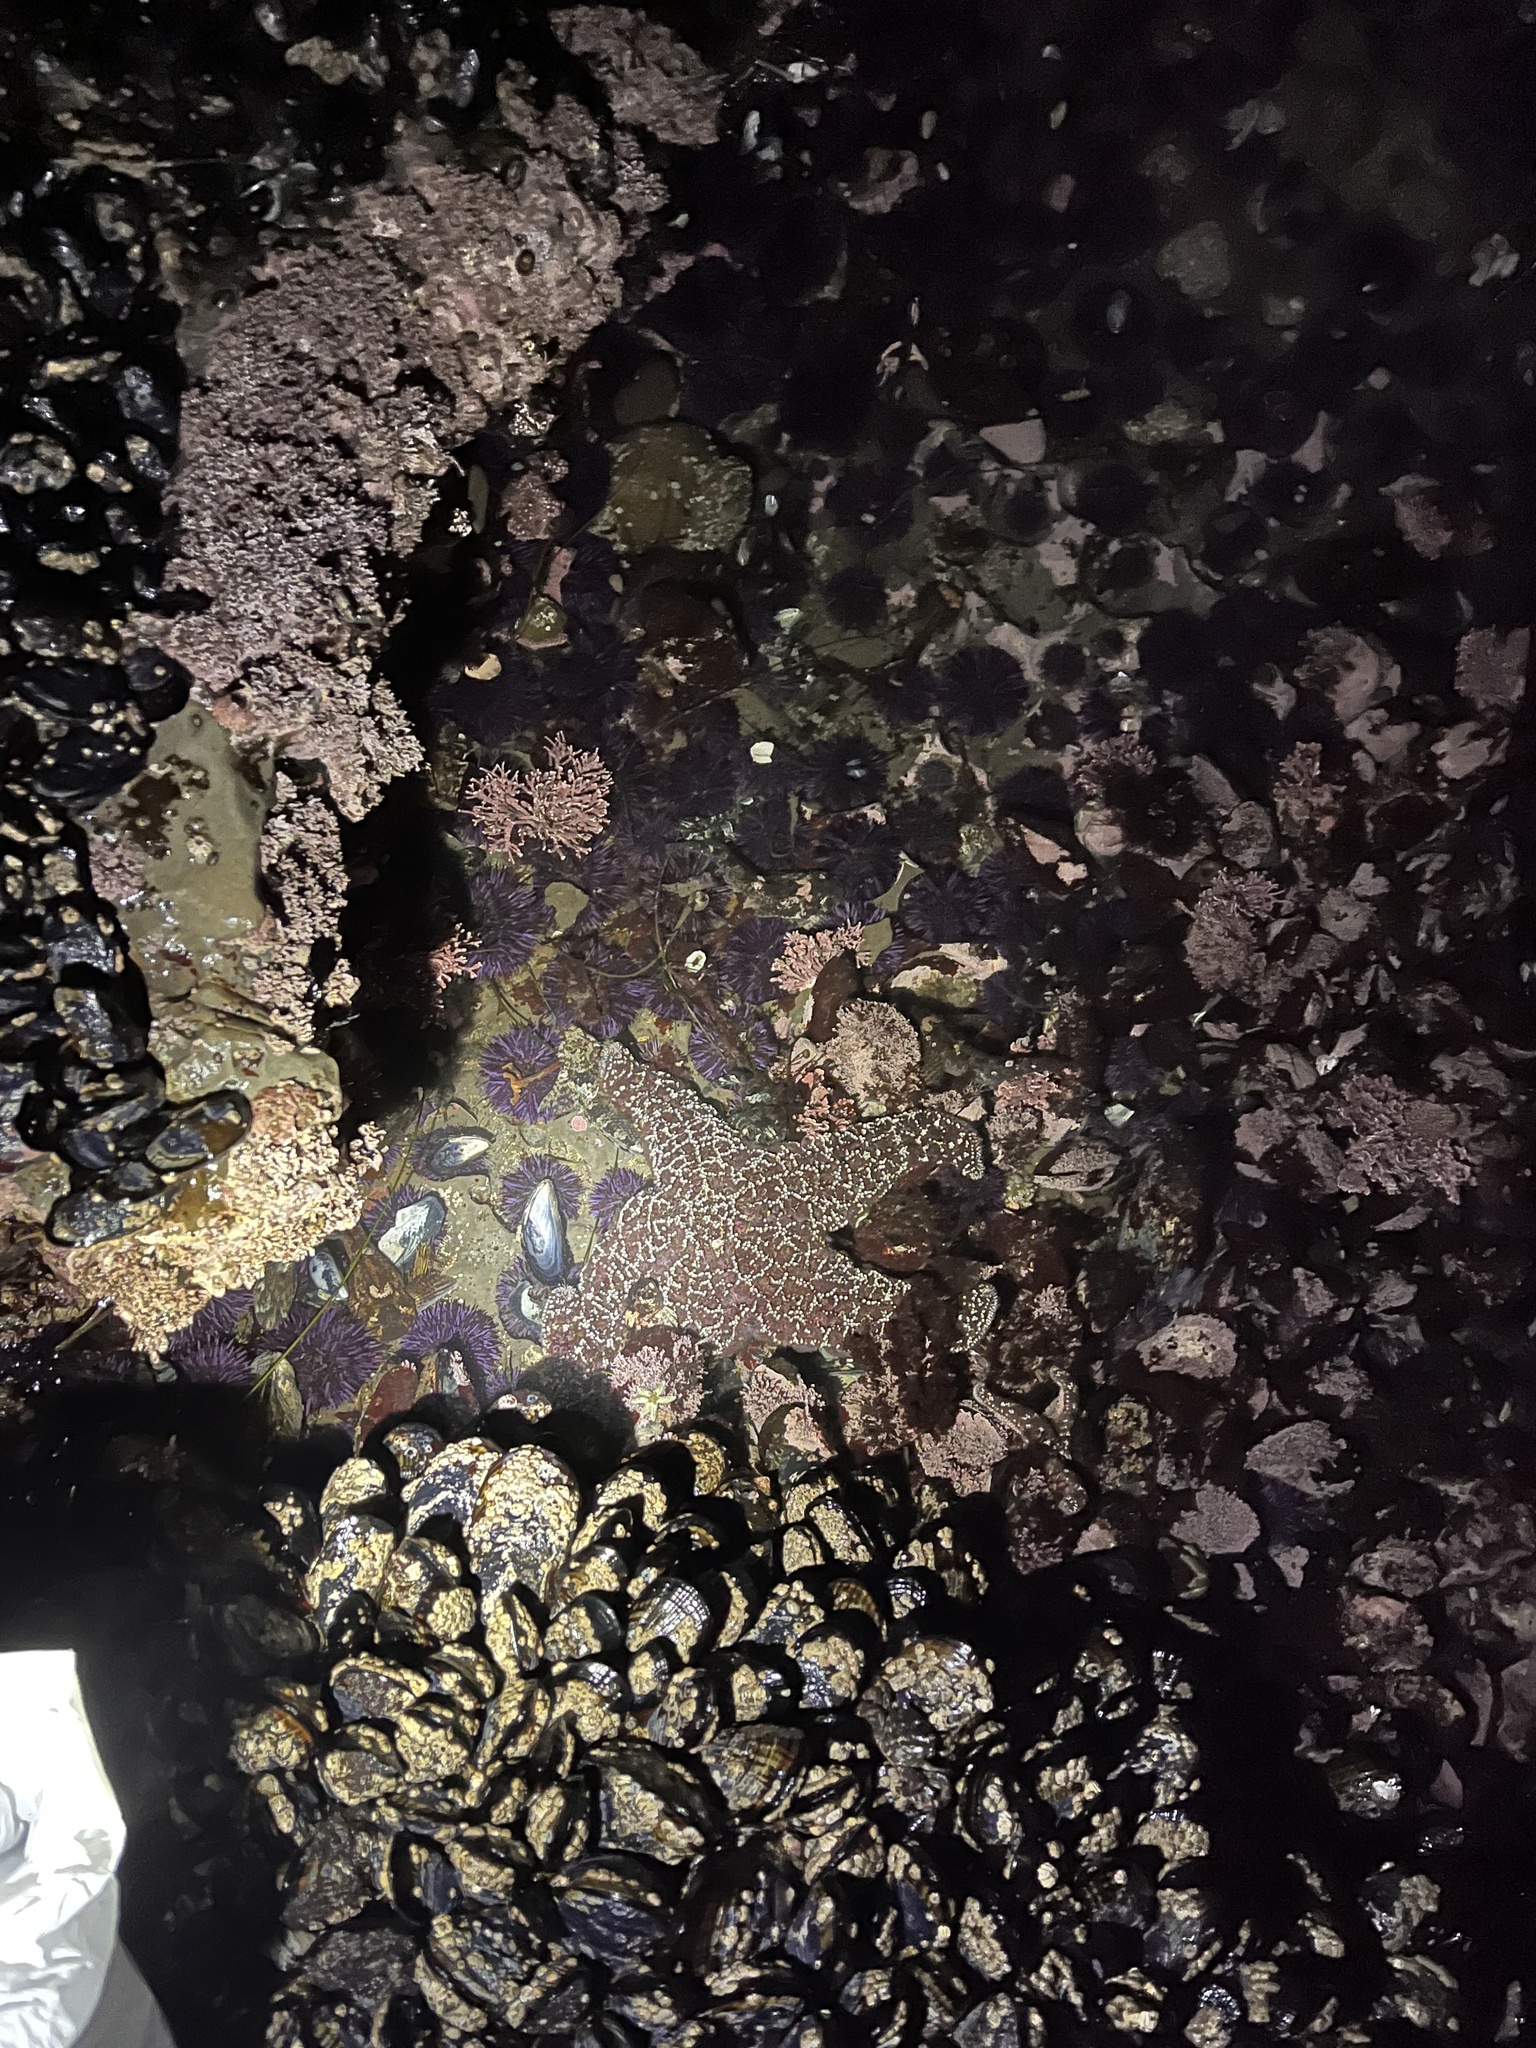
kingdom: Animalia
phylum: Echinodermata
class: Echinoidea
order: Camarodonta
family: Strongylocentrotidae
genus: Strongylocentrotus
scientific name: Strongylocentrotus purpuratus
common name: Purple sea urchin
